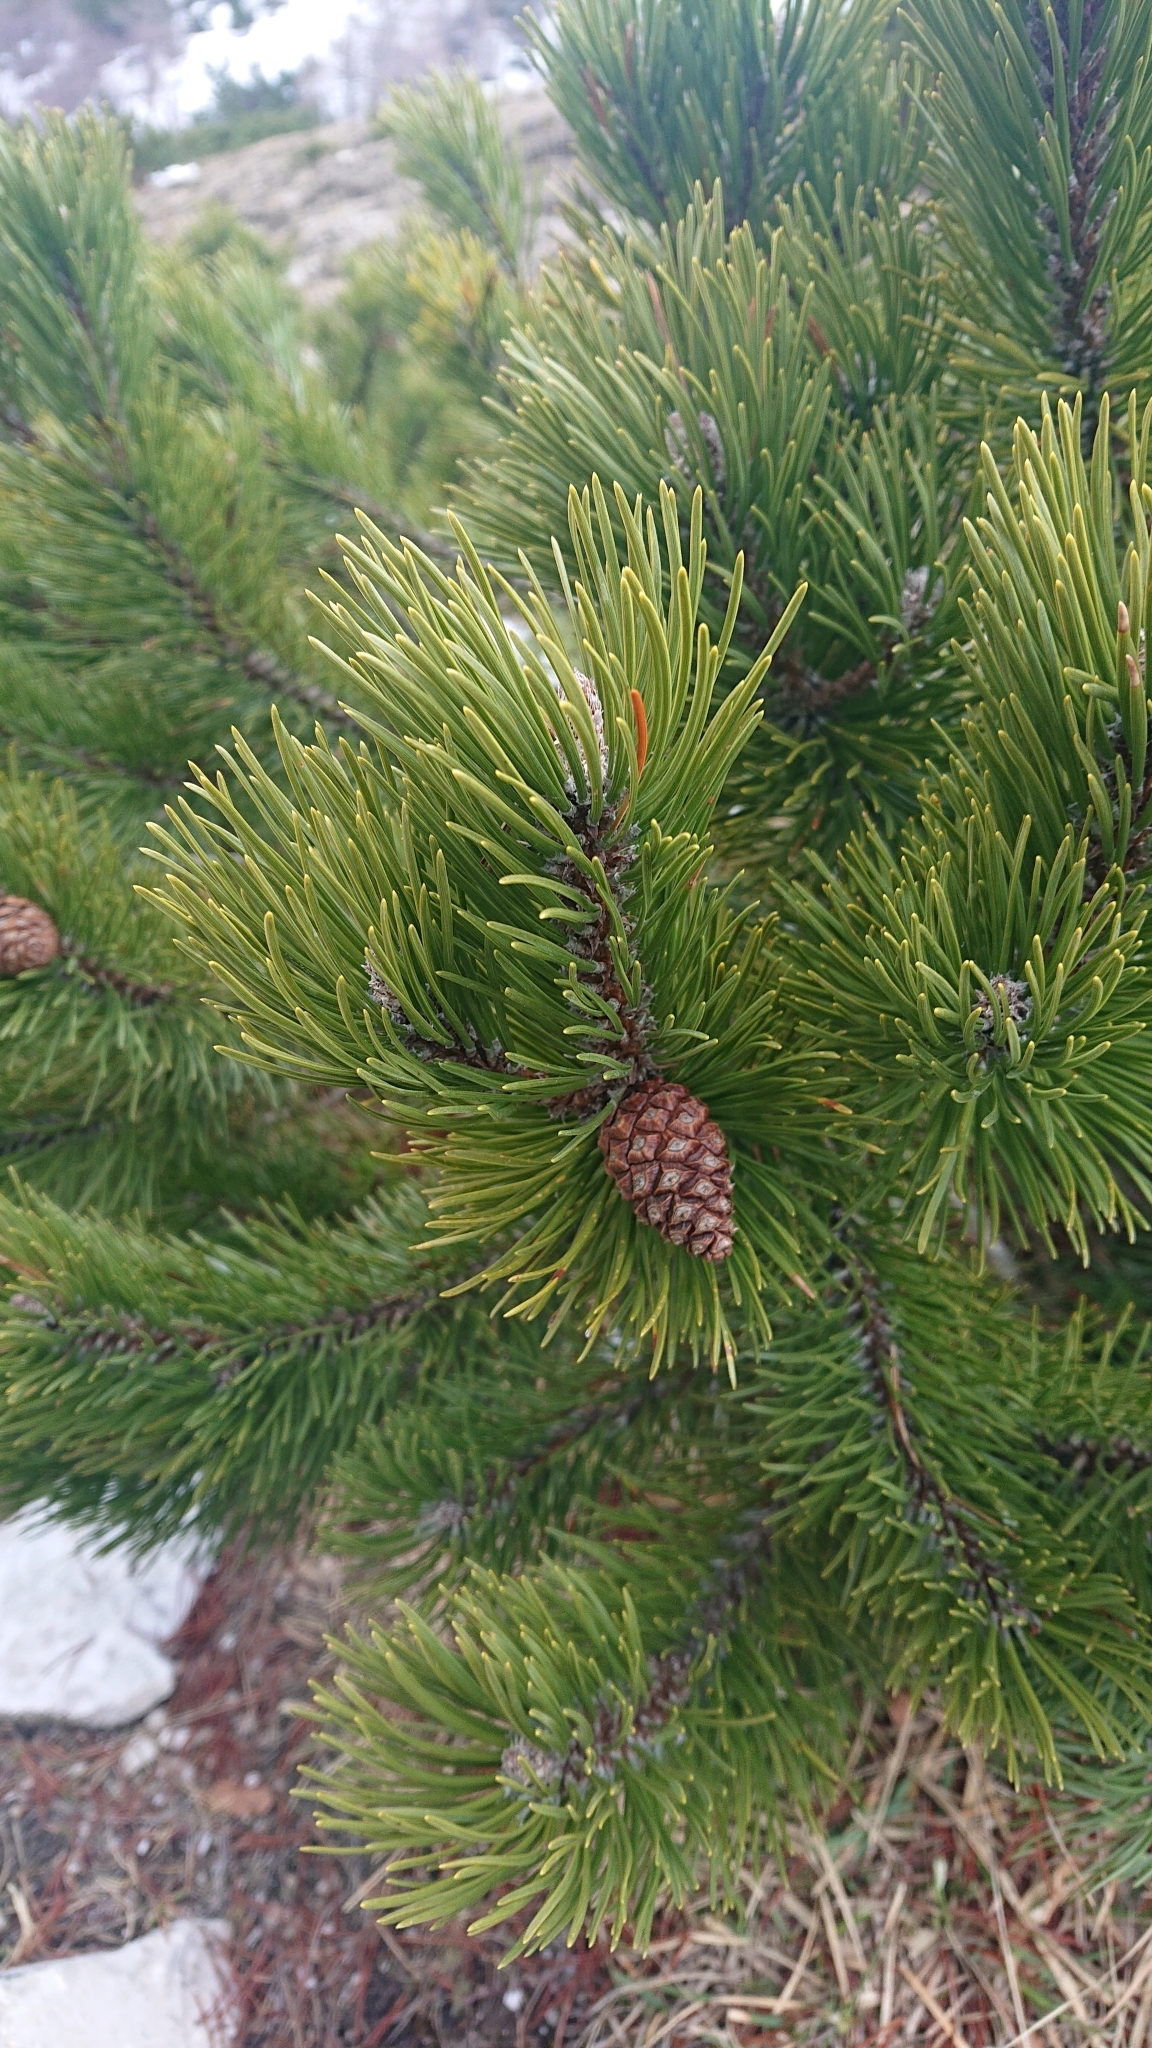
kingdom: Plantae
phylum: Tracheophyta
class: Pinopsida
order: Pinales
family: Pinaceae
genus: Pinus
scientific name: Pinus mugo
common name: Mugo pine
